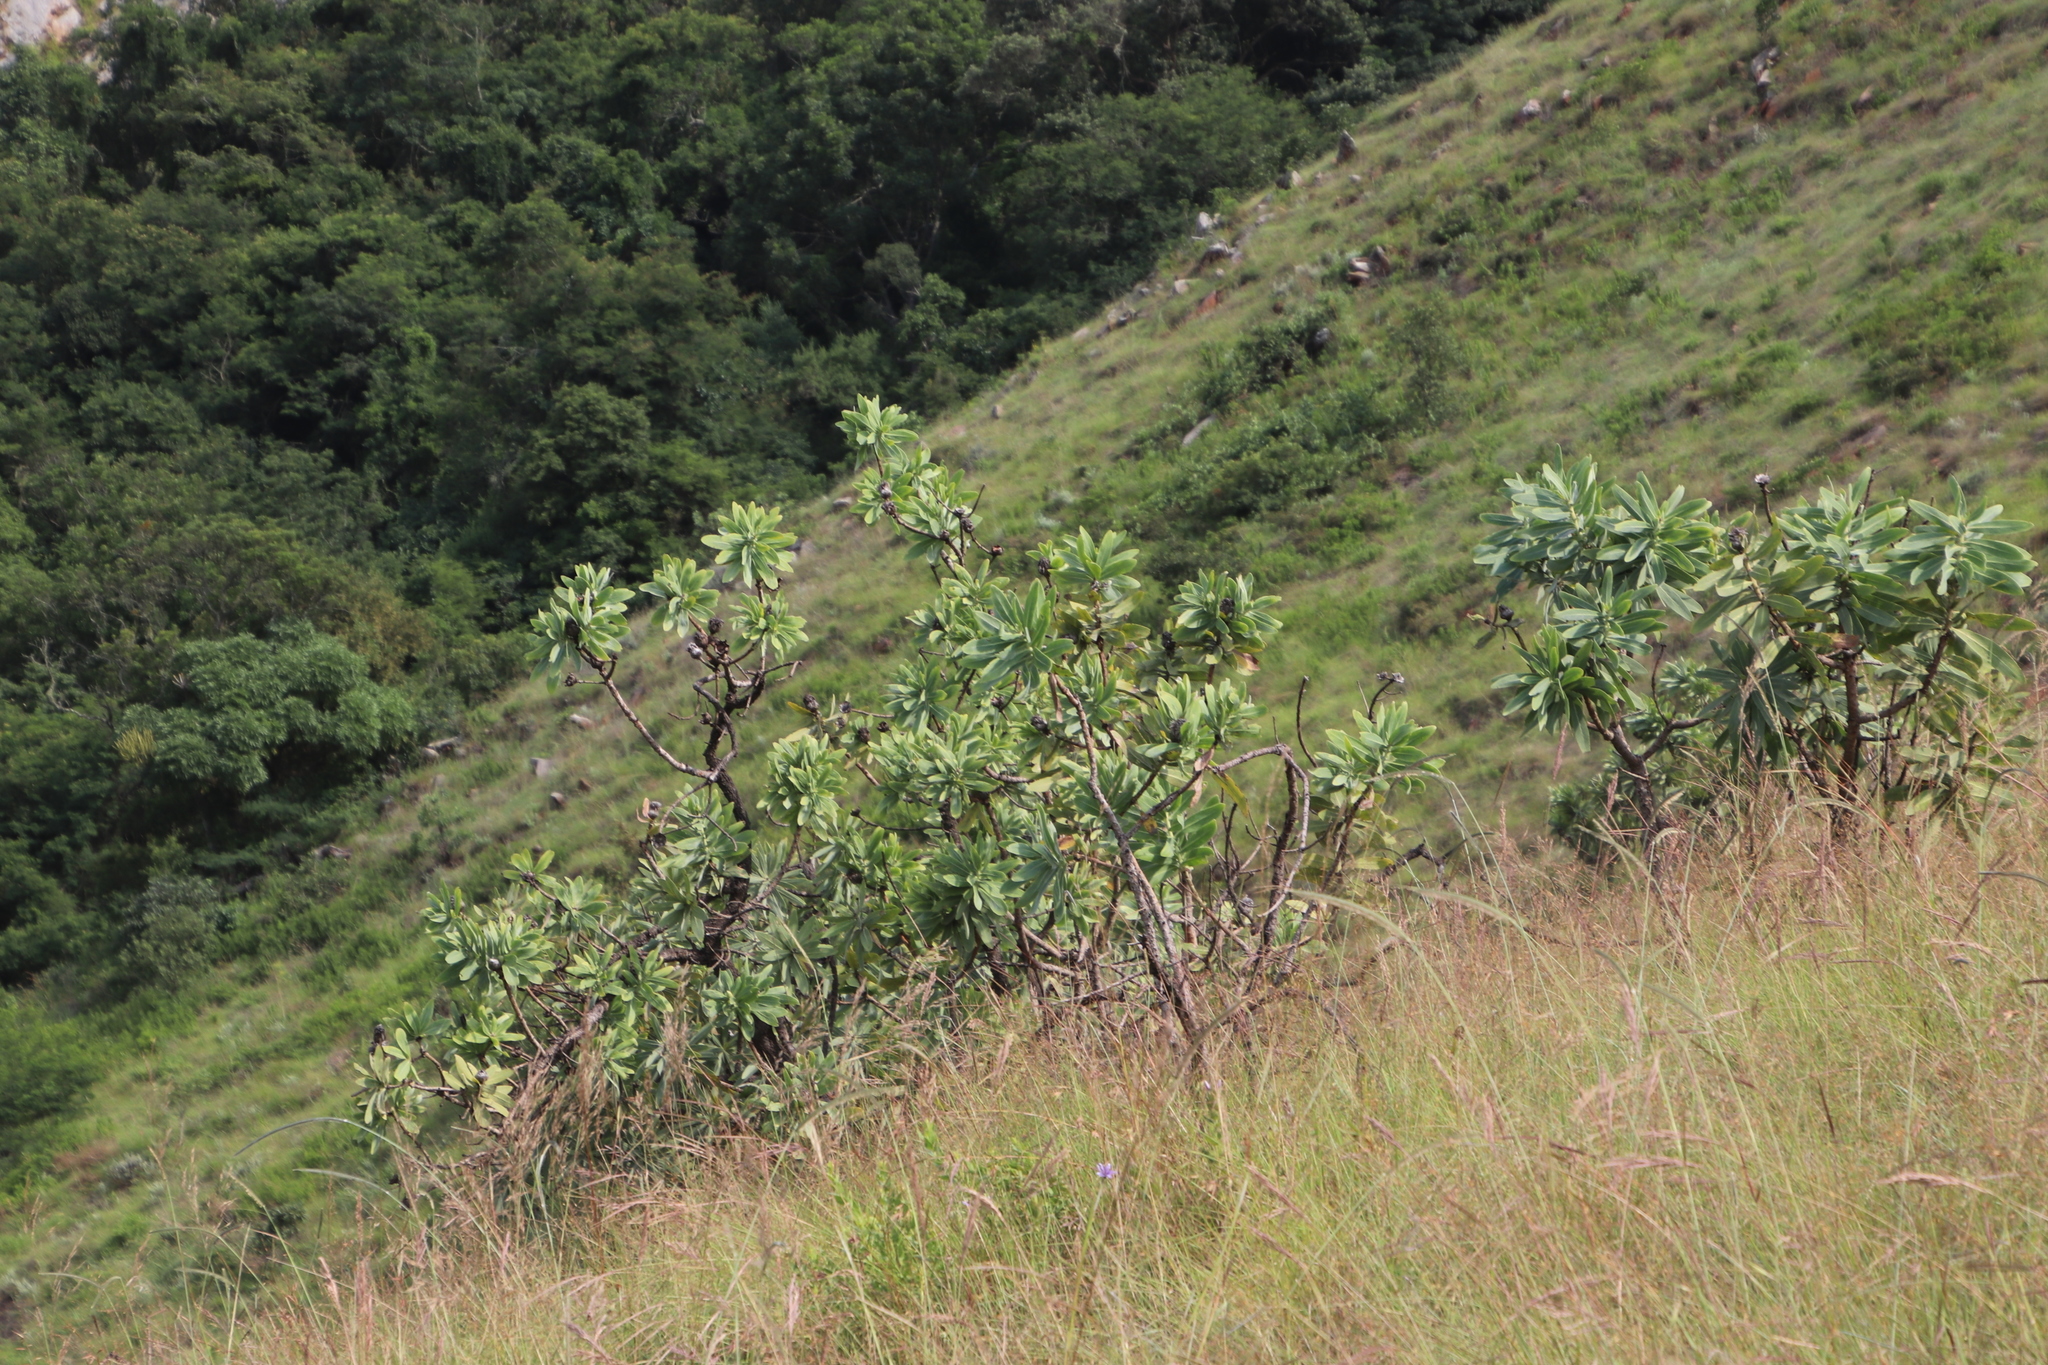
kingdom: Plantae
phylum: Tracheophyta
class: Magnoliopsida
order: Proteales
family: Proteaceae
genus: Protea
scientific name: Protea gaguedi
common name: African protea
